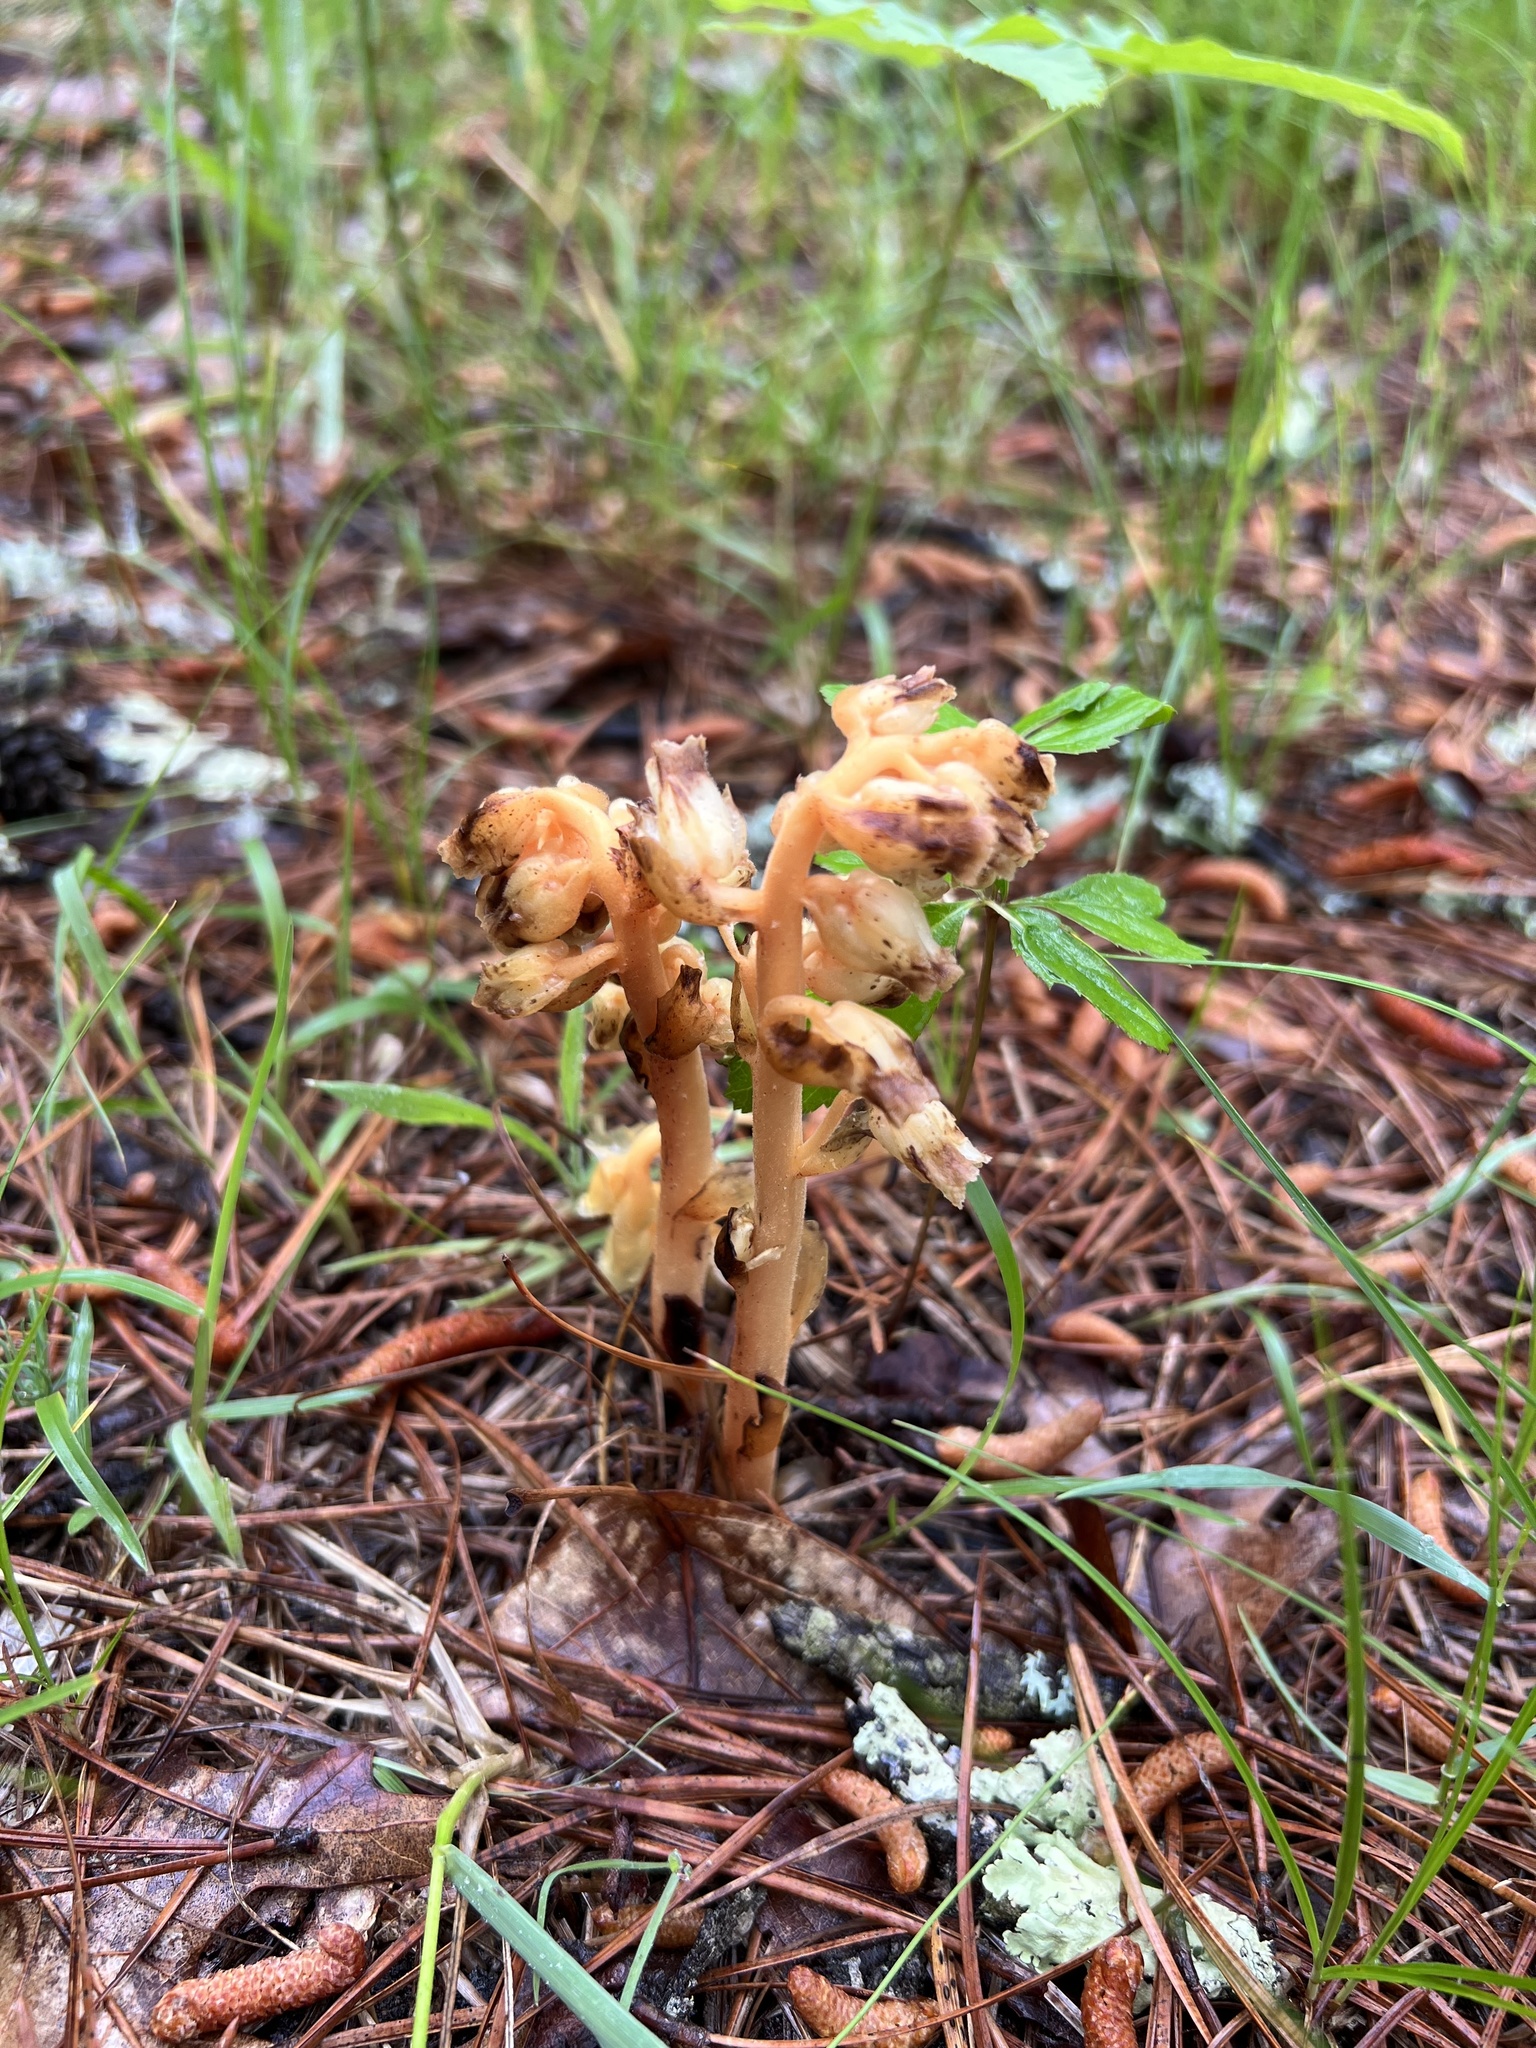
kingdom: Plantae
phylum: Tracheophyta
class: Magnoliopsida
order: Ericales
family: Ericaceae
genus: Hypopitys
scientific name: Hypopitys monotropa
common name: Yellow bird's-nest
